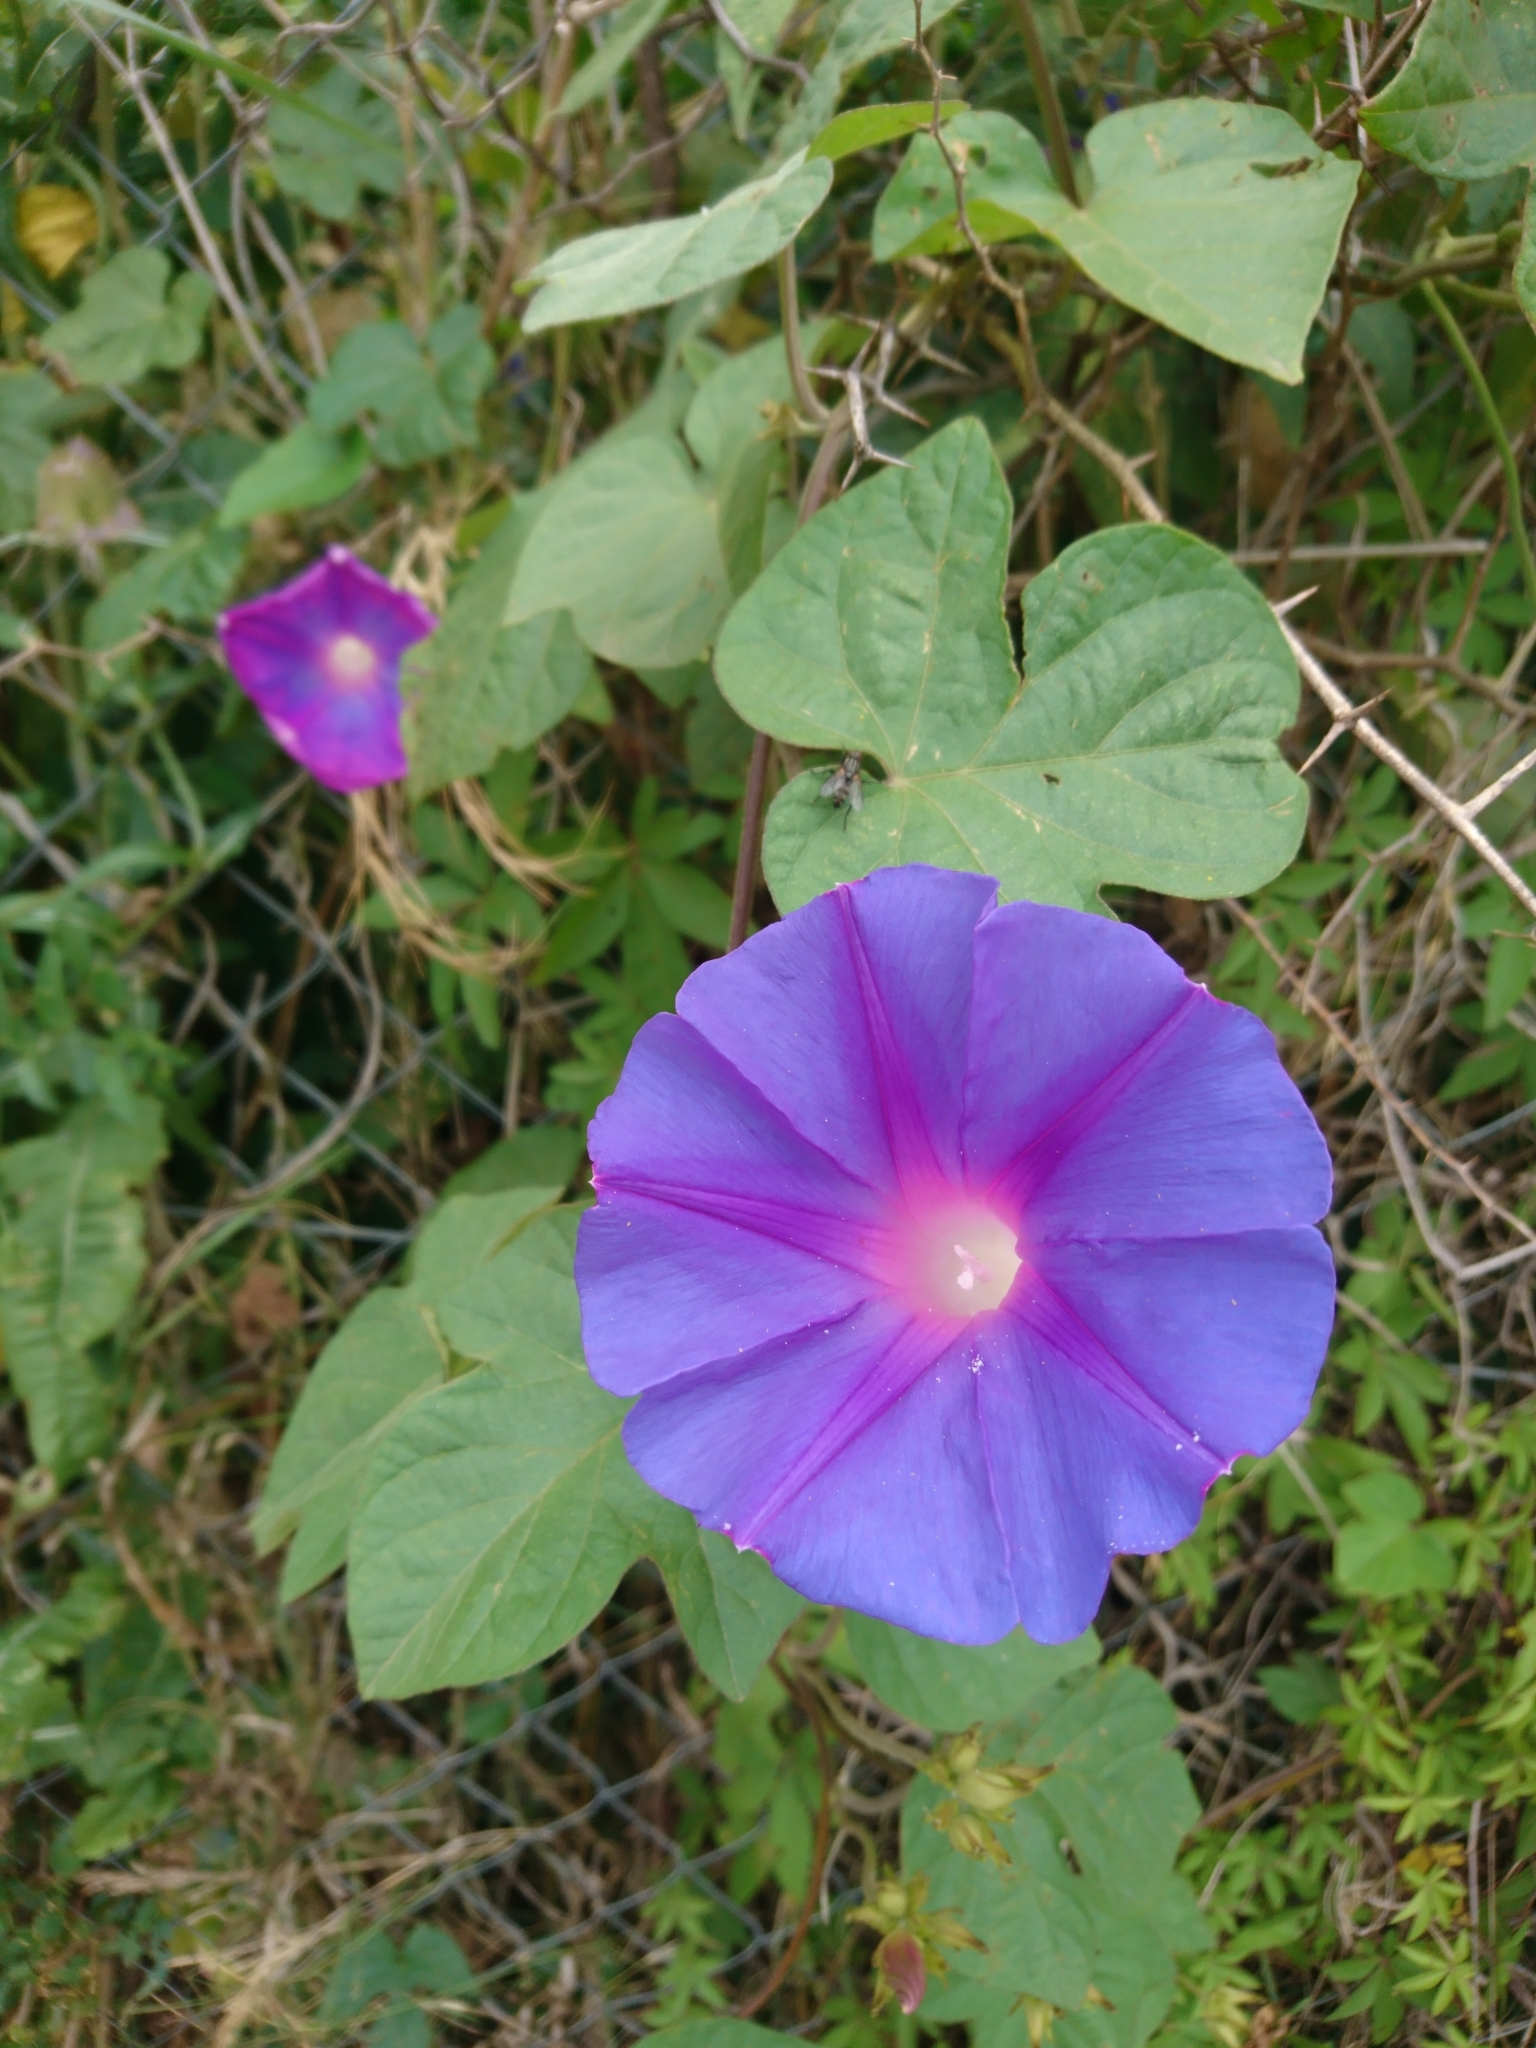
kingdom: Plantae
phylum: Tracheophyta
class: Magnoliopsida
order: Solanales
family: Convolvulaceae
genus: Ipomoea
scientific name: Ipomoea indica
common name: Blue dawnflower
